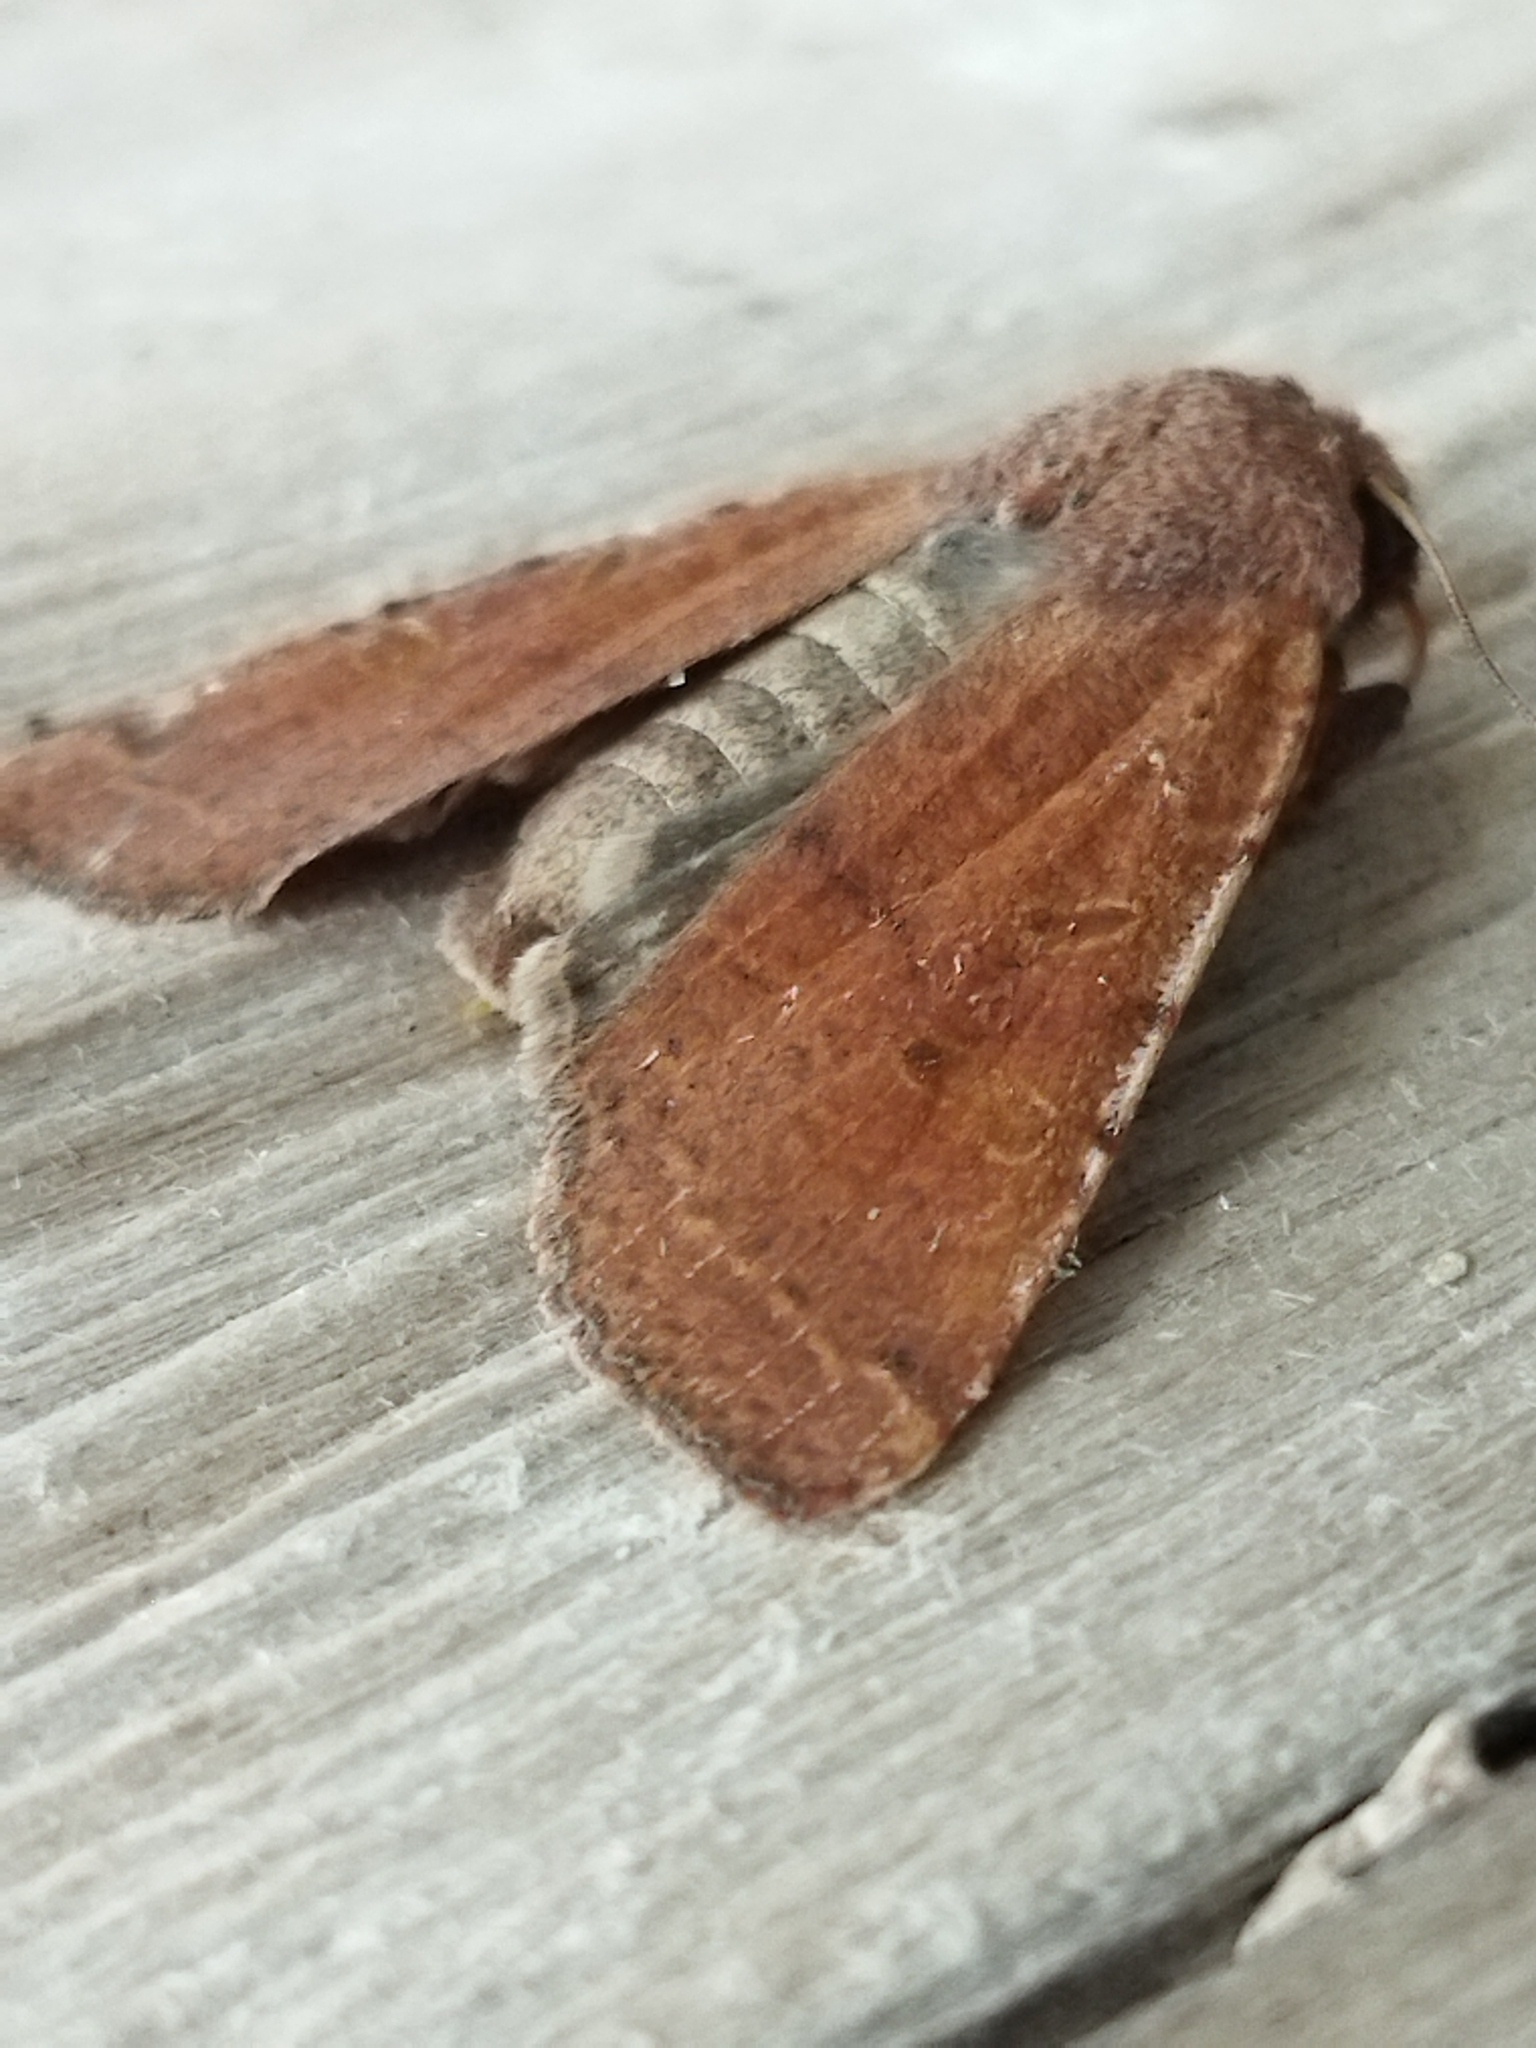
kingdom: Animalia
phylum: Arthropoda
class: Insecta
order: Lepidoptera
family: Noctuidae
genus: Agrochola
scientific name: Agrochola lychnidis
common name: Beaded chestnut
